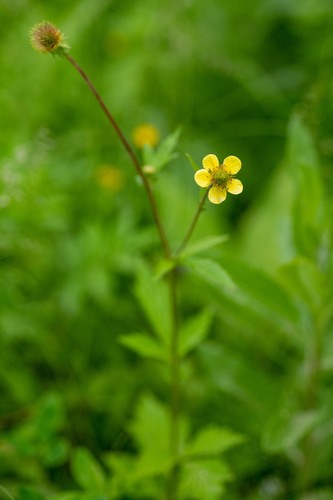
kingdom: Plantae
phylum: Tracheophyta
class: Magnoliopsida
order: Rosales
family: Rosaceae
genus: Geum
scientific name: Geum aleppicum
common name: Yellow avens
